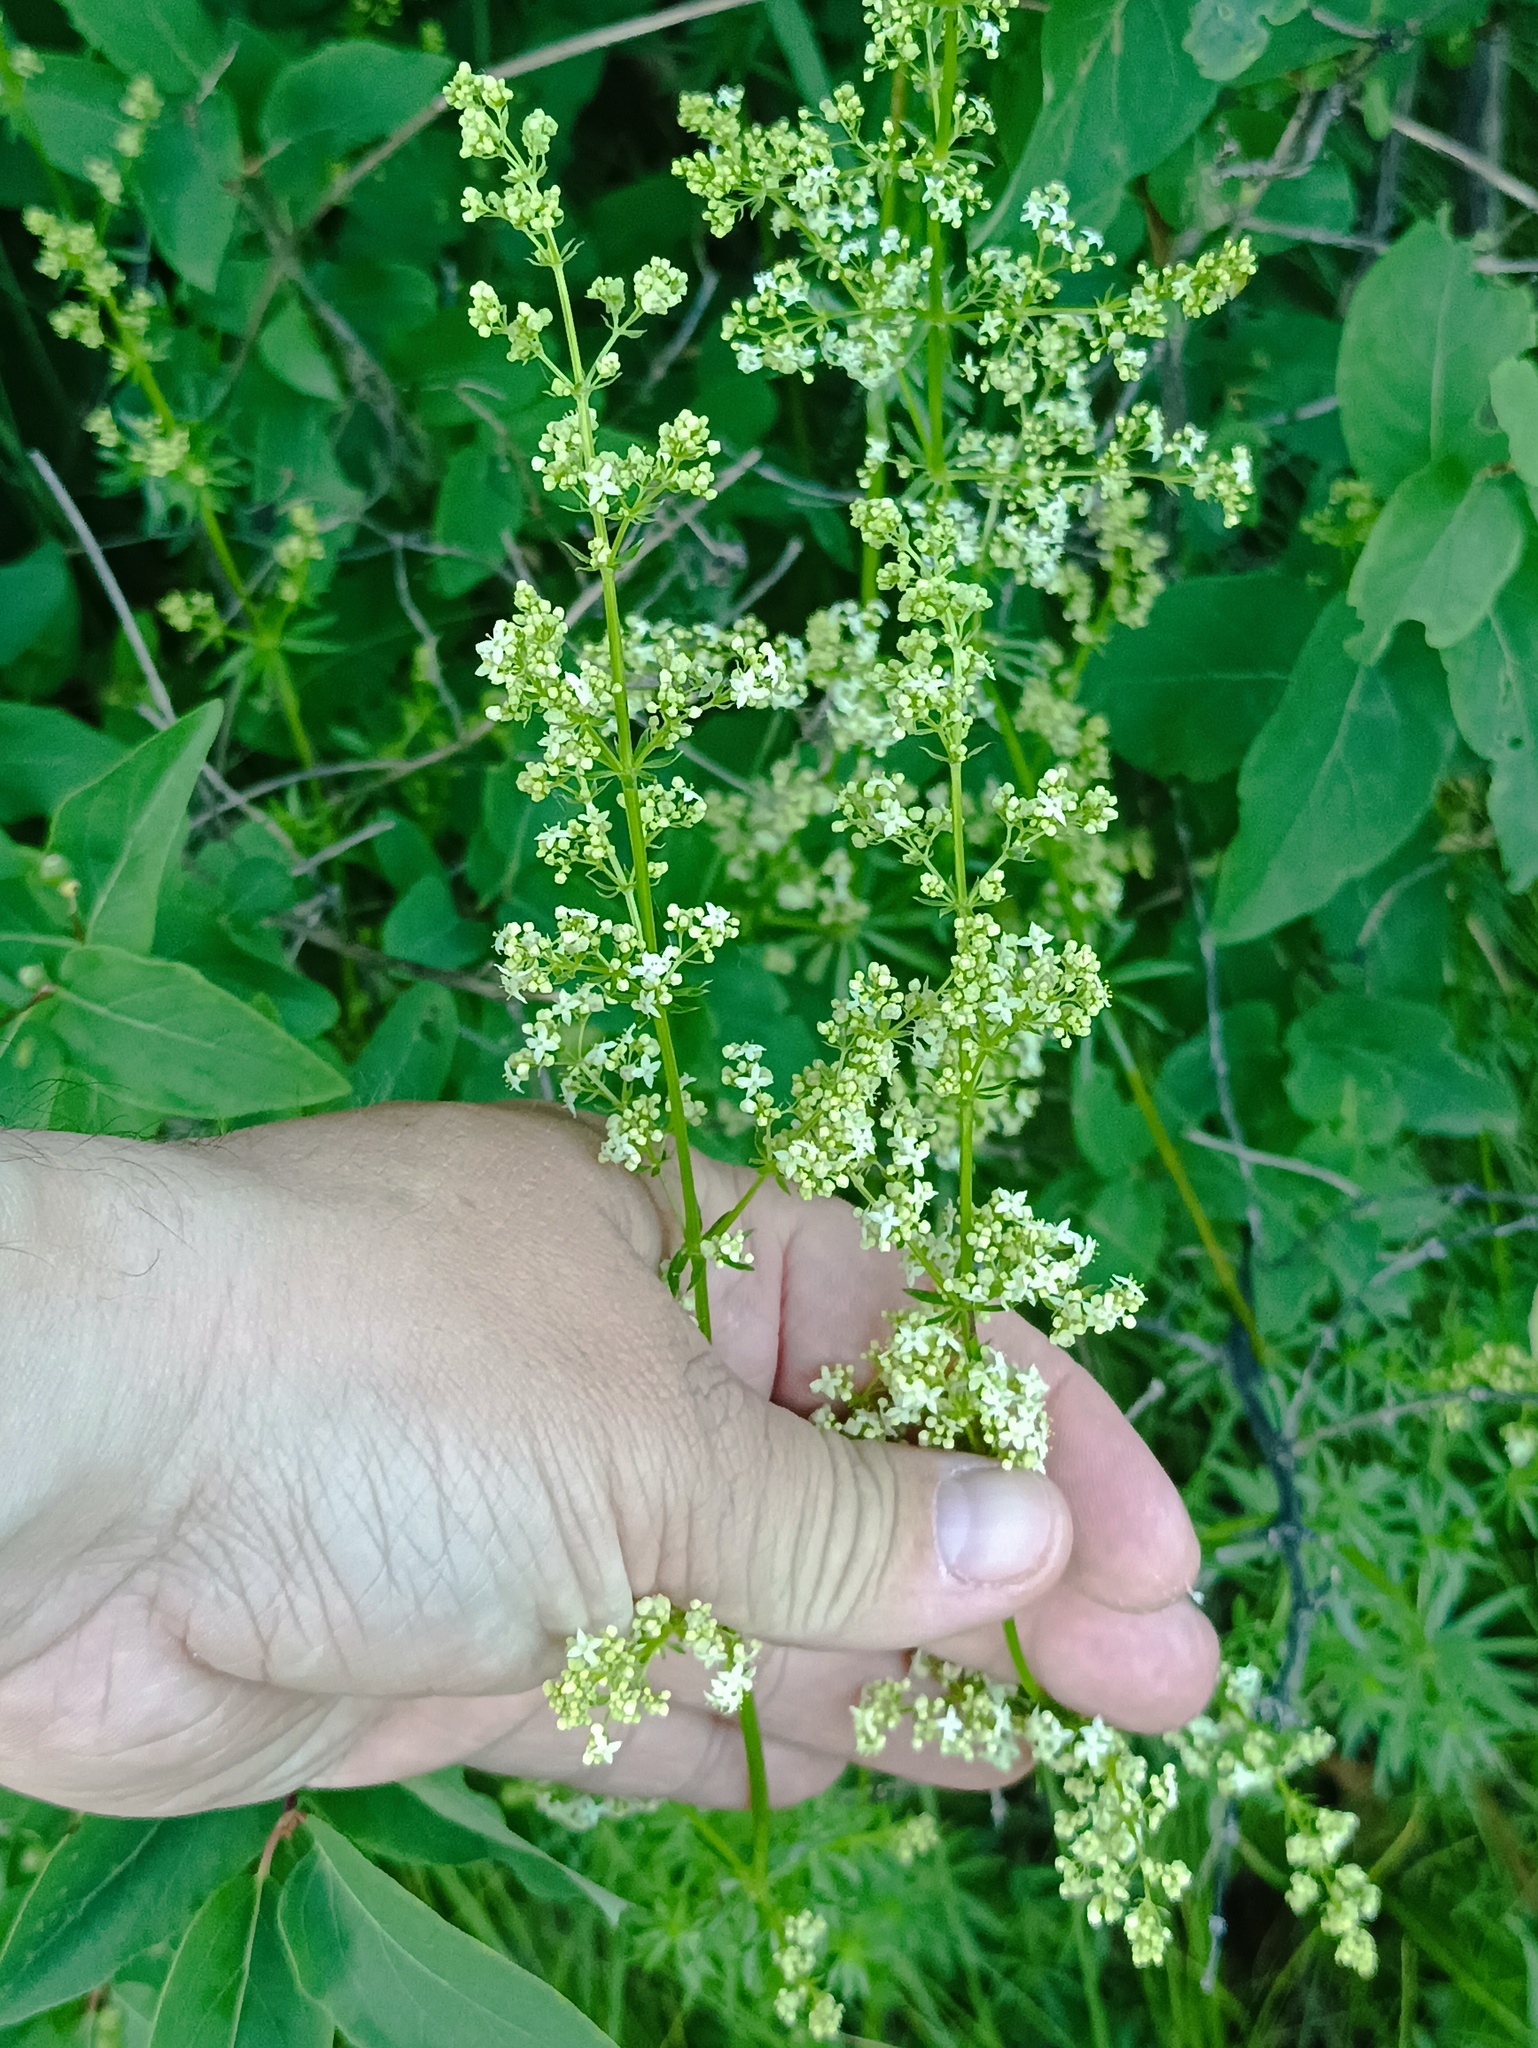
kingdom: Plantae
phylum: Tracheophyta
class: Magnoliopsida
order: Gentianales
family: Rubiaceae
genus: Galium
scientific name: Galium mollugo
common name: Hedge bedstraw
